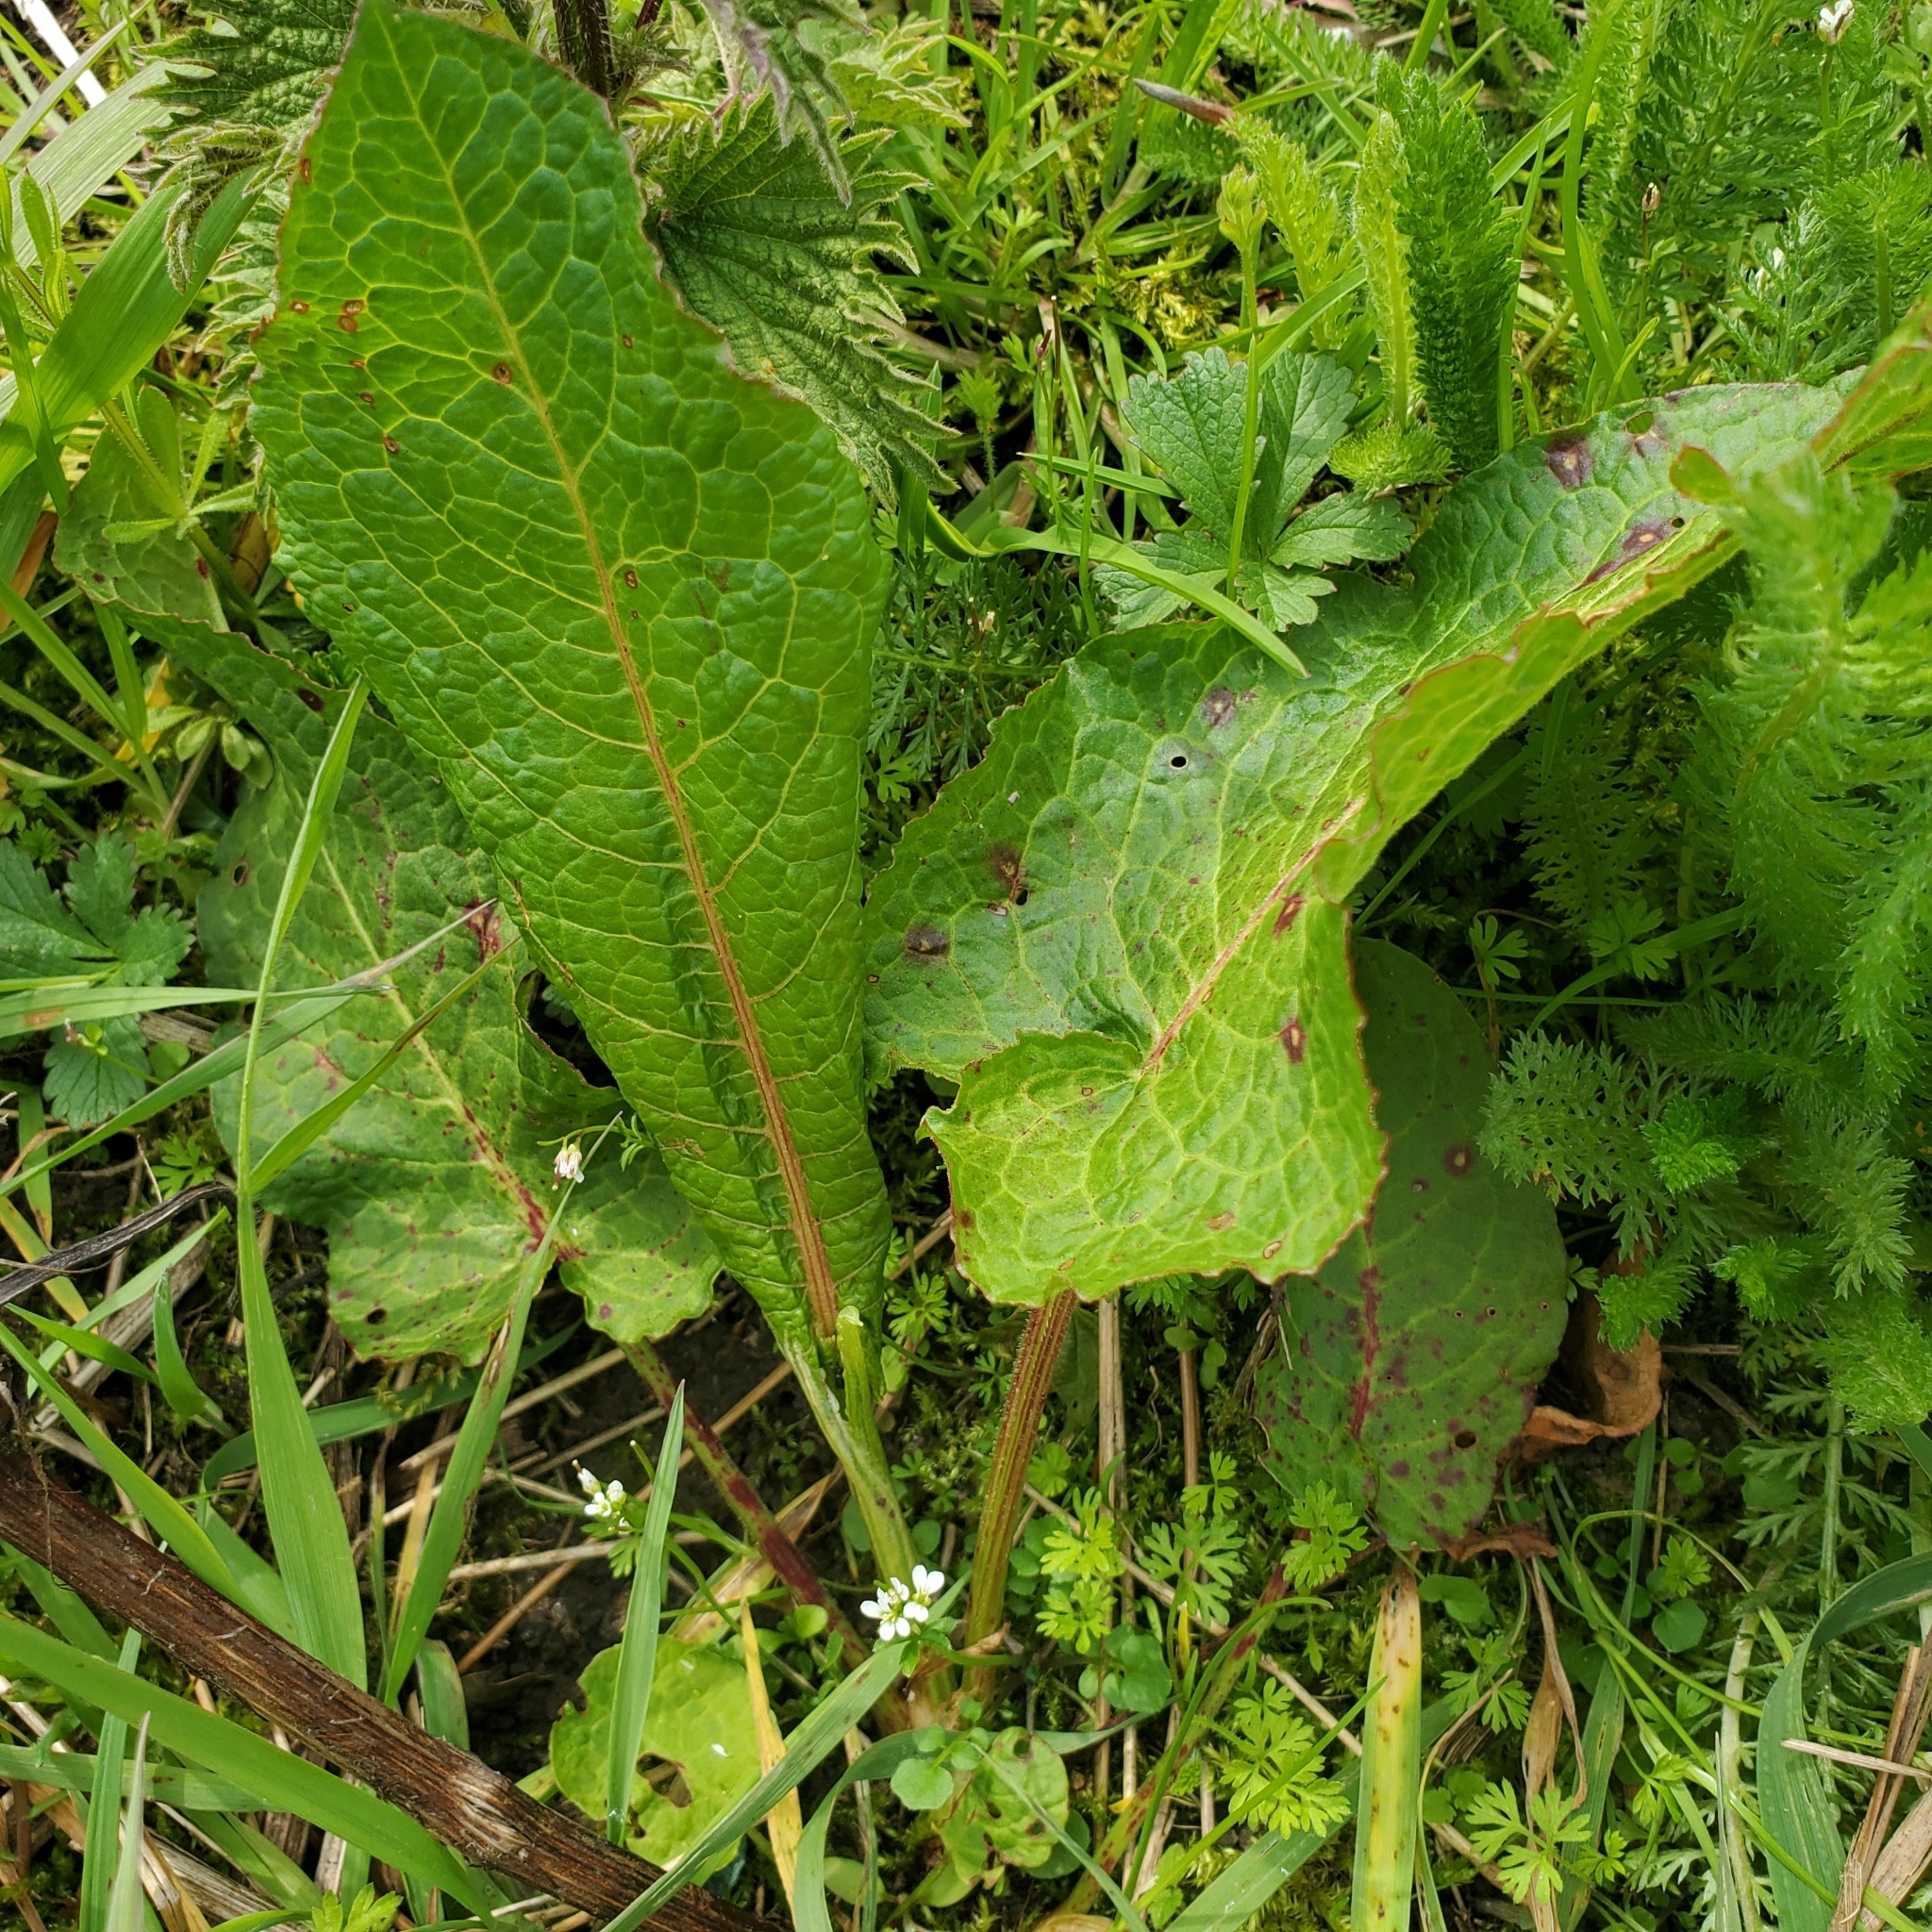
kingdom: Plantae
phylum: Tracheophyta
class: Magnoliopsida
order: Caryophyllales
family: Polygonaceae
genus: Rumex
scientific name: Rumex obtusifolius
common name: Bitter dock
